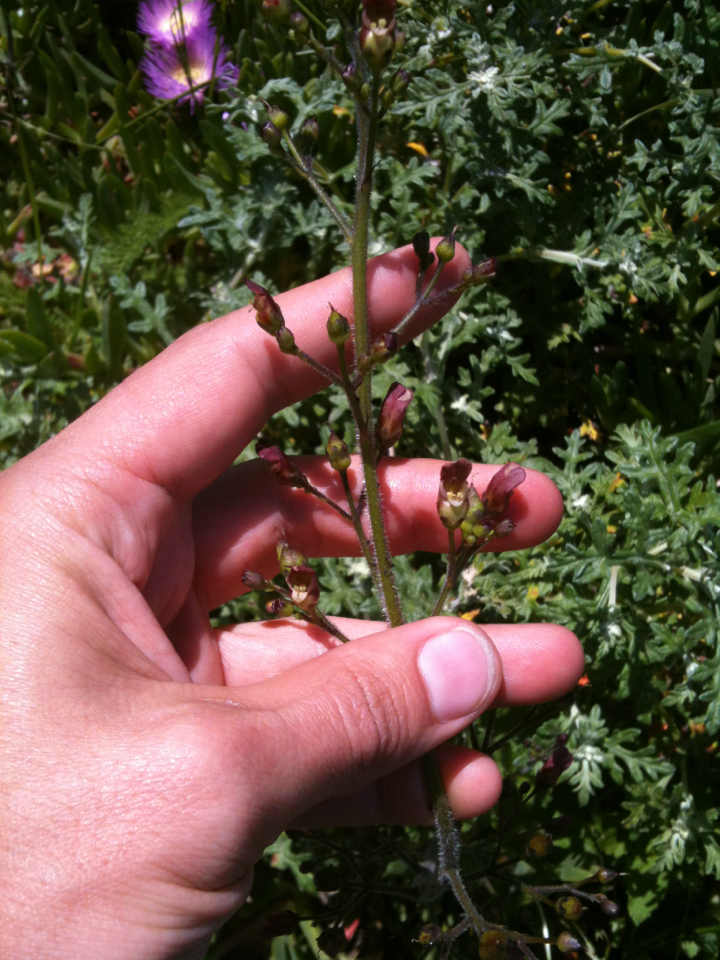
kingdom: Plantae
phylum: Tracheophyta
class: Magnoliopsida
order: Lamiales
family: Scrophulariaceae
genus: Scrophularia
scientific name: Scrophularia californica
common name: California figwort
